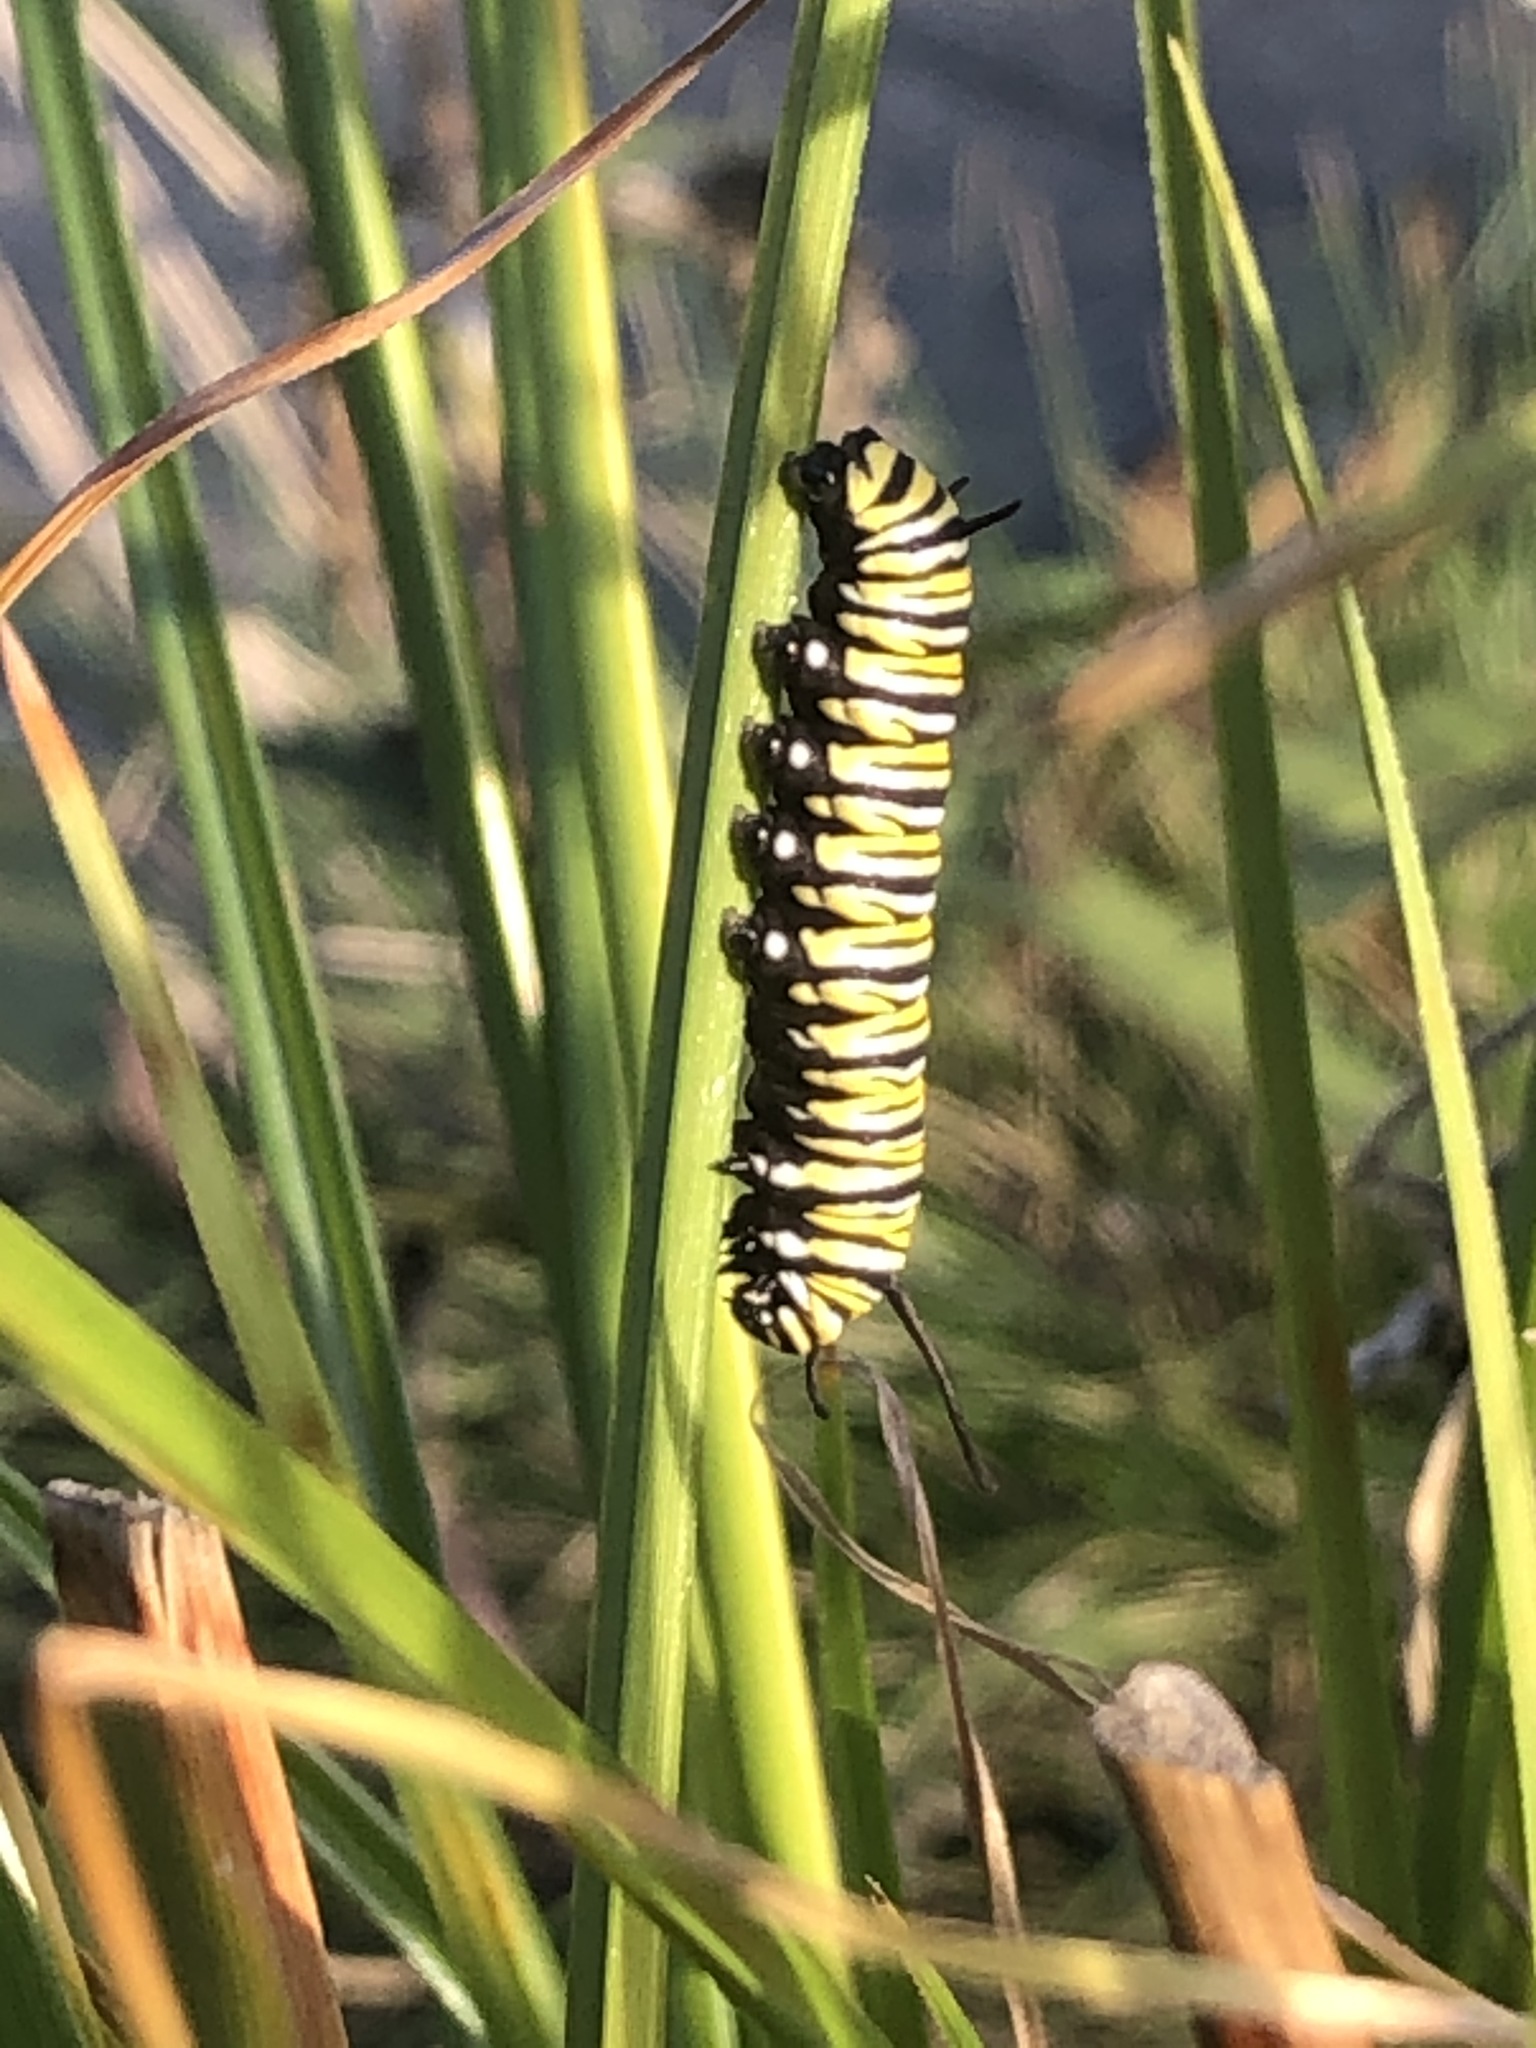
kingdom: Animalia
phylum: Arthropoda
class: Insecta
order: Lepidoptera
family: Nymphalidae
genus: Danaus
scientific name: Danaus plexippus
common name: Monarch
